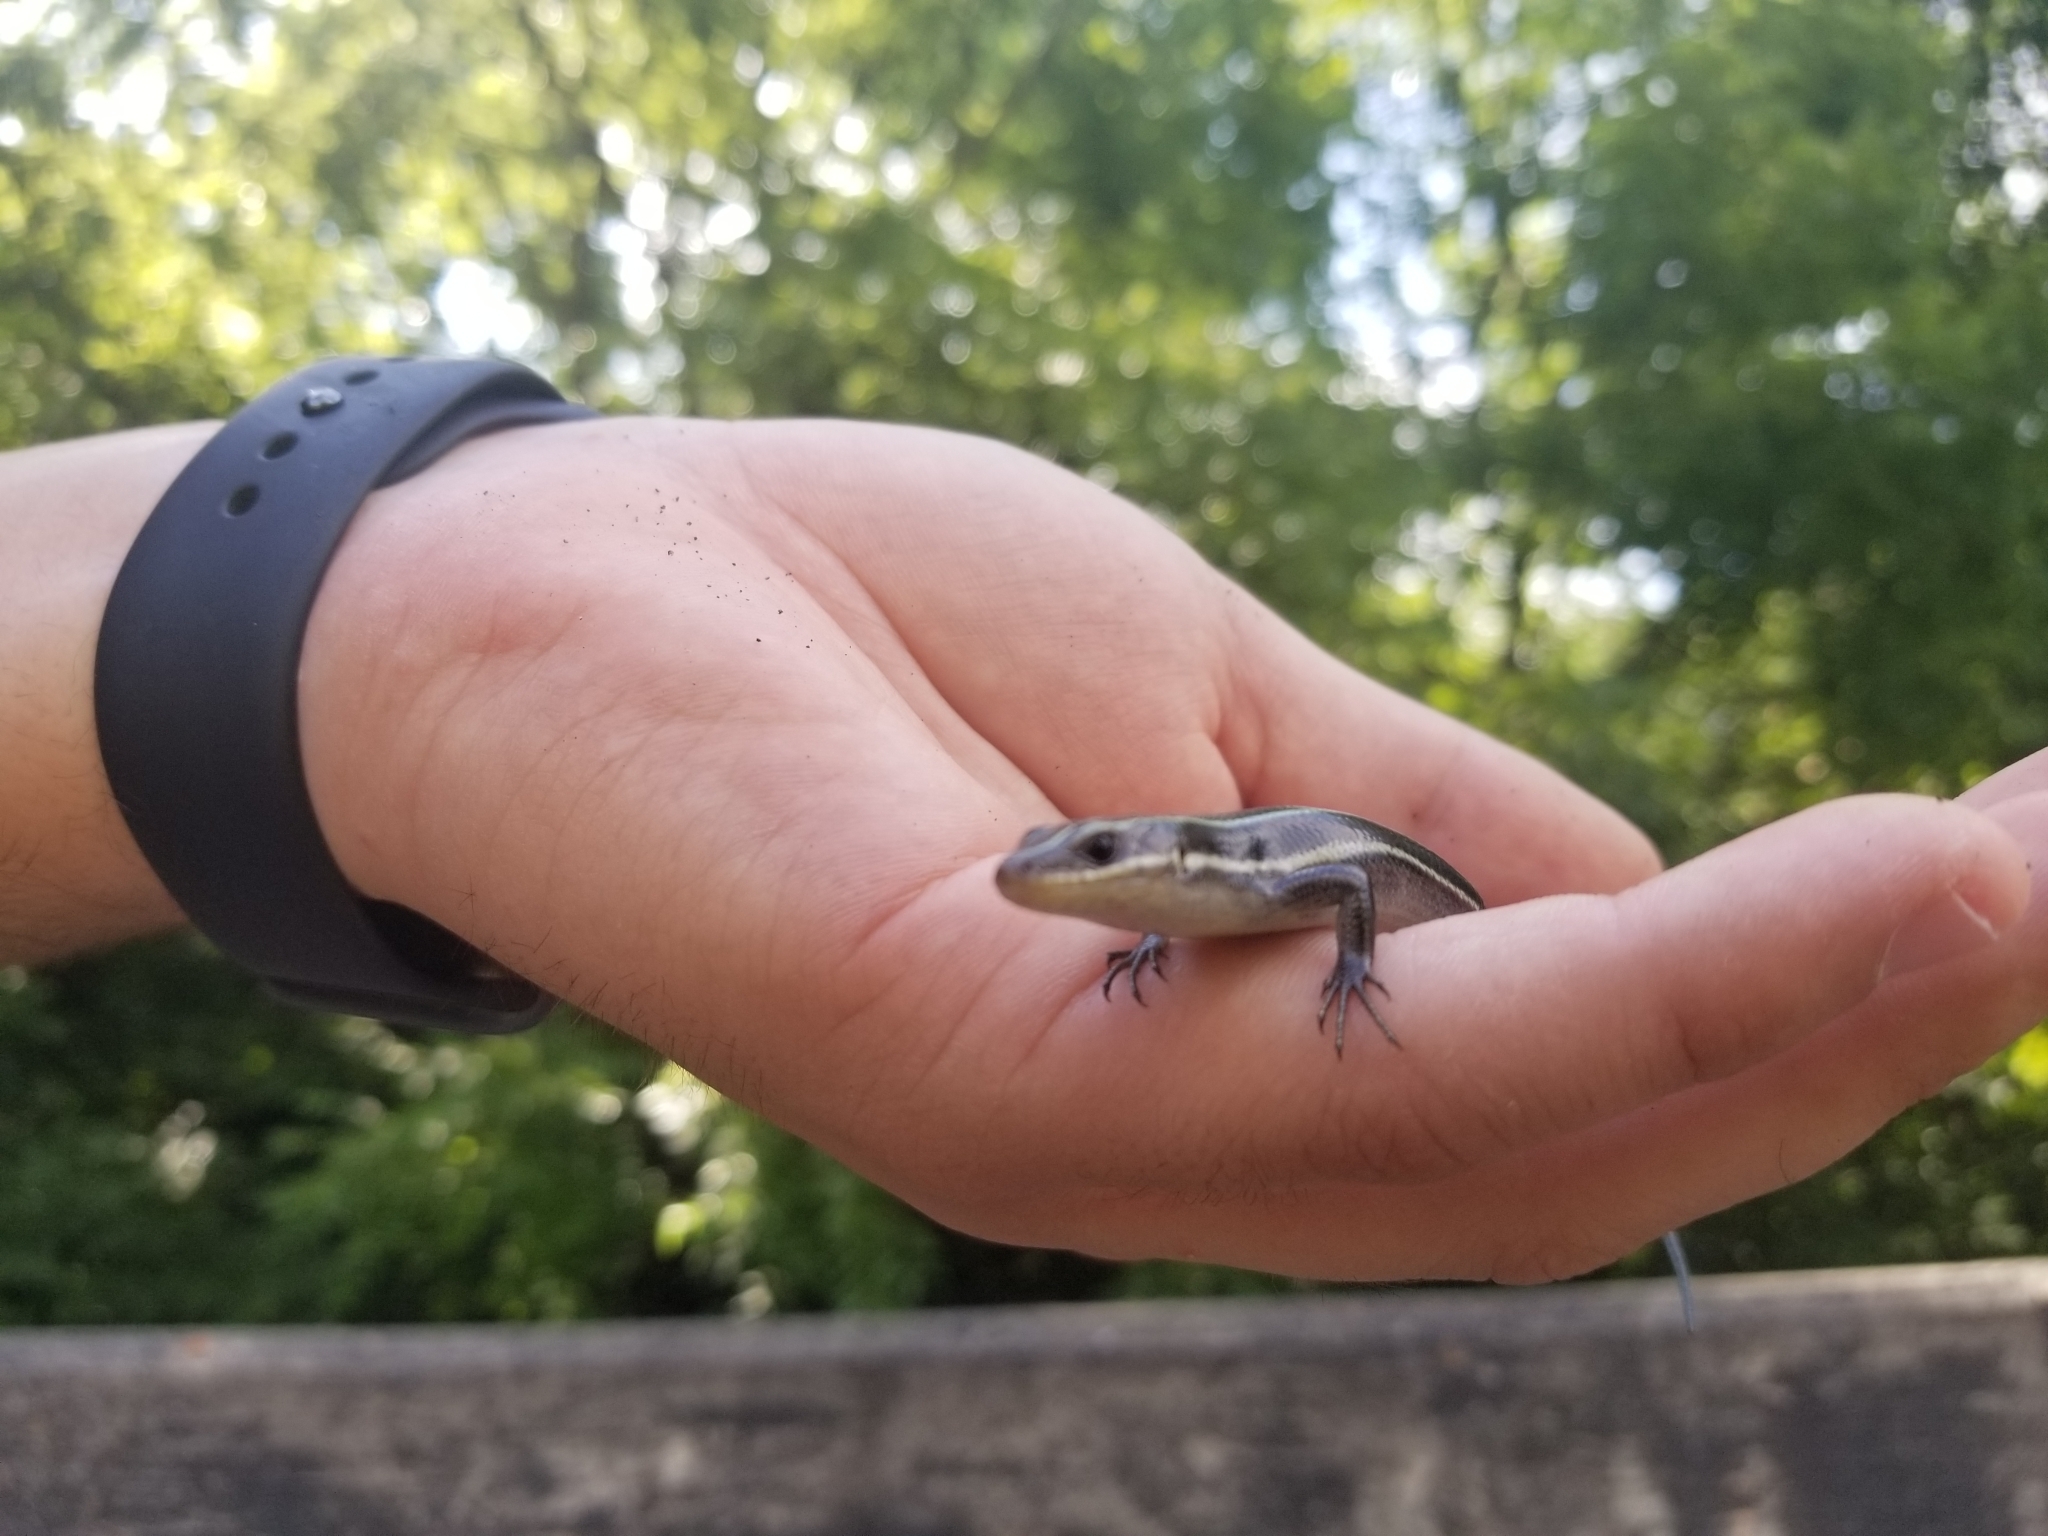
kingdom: Animalia
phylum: Chordata
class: Squamata
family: Scincidae
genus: Plestiodon
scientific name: Plestiodon fasciatus
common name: Five-lined skink
